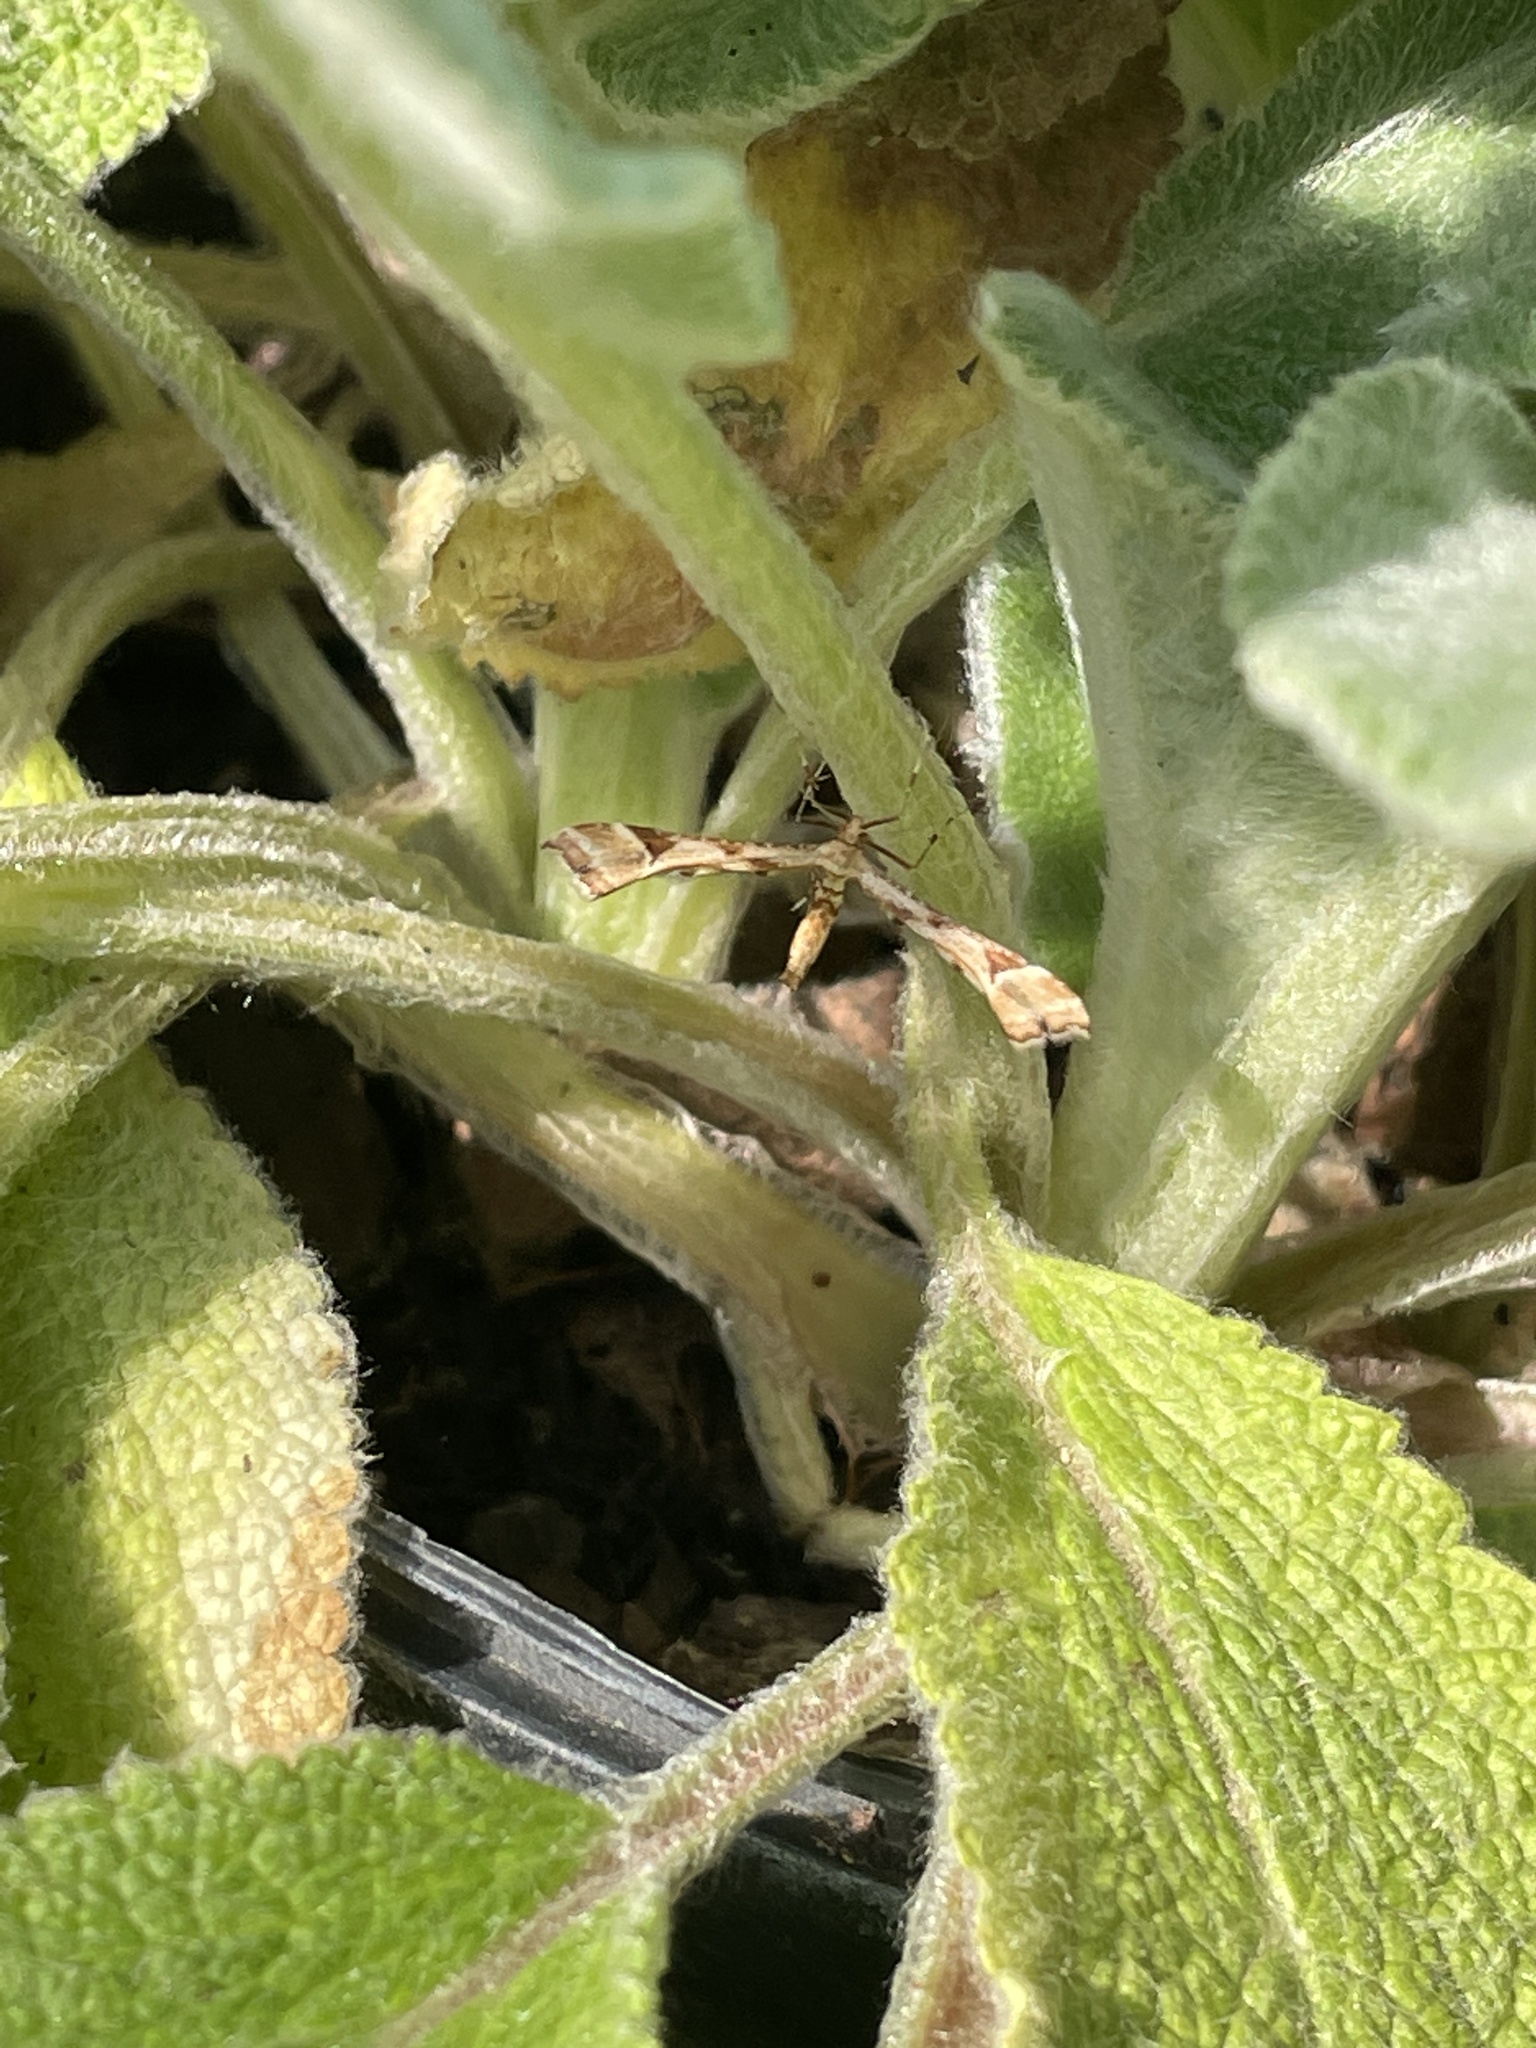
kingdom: Animalia
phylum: Arthropoda
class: Insecta
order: Lepidoptera
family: Pterophoridae
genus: Platyptilia
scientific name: Platyptilia carduidactylus
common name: Artichoke plume moth
